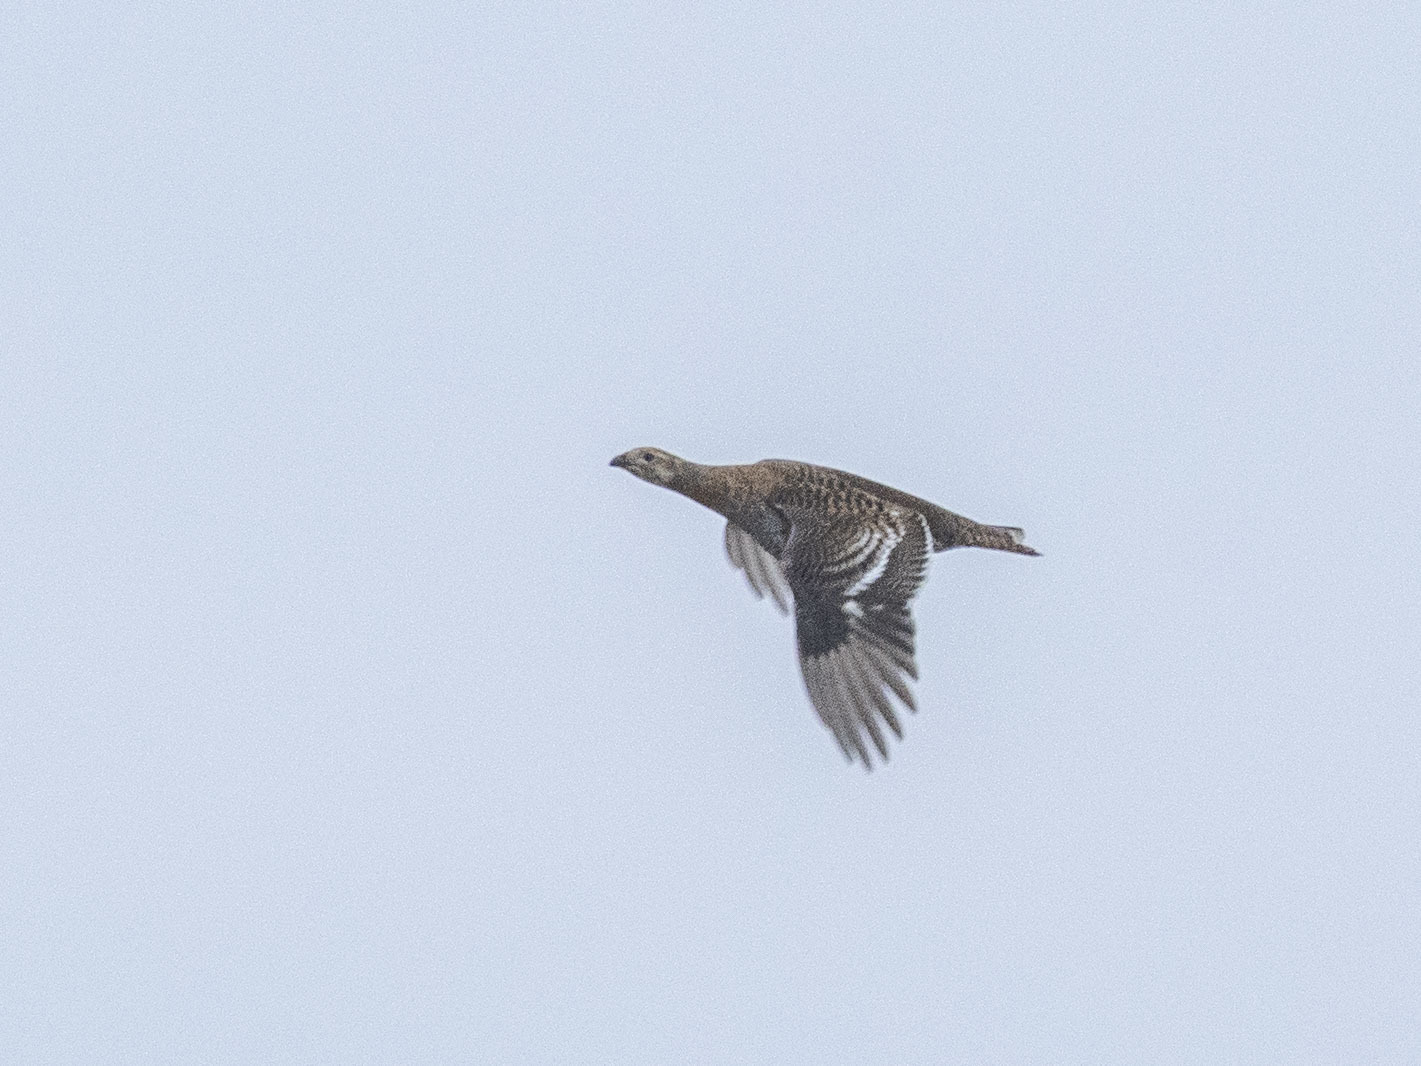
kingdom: Animalia
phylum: Chordata
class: Aves
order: Galliformes
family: Phasianidae
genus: Lyrurus
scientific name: Lyrurus tetrix
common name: Black grouse
